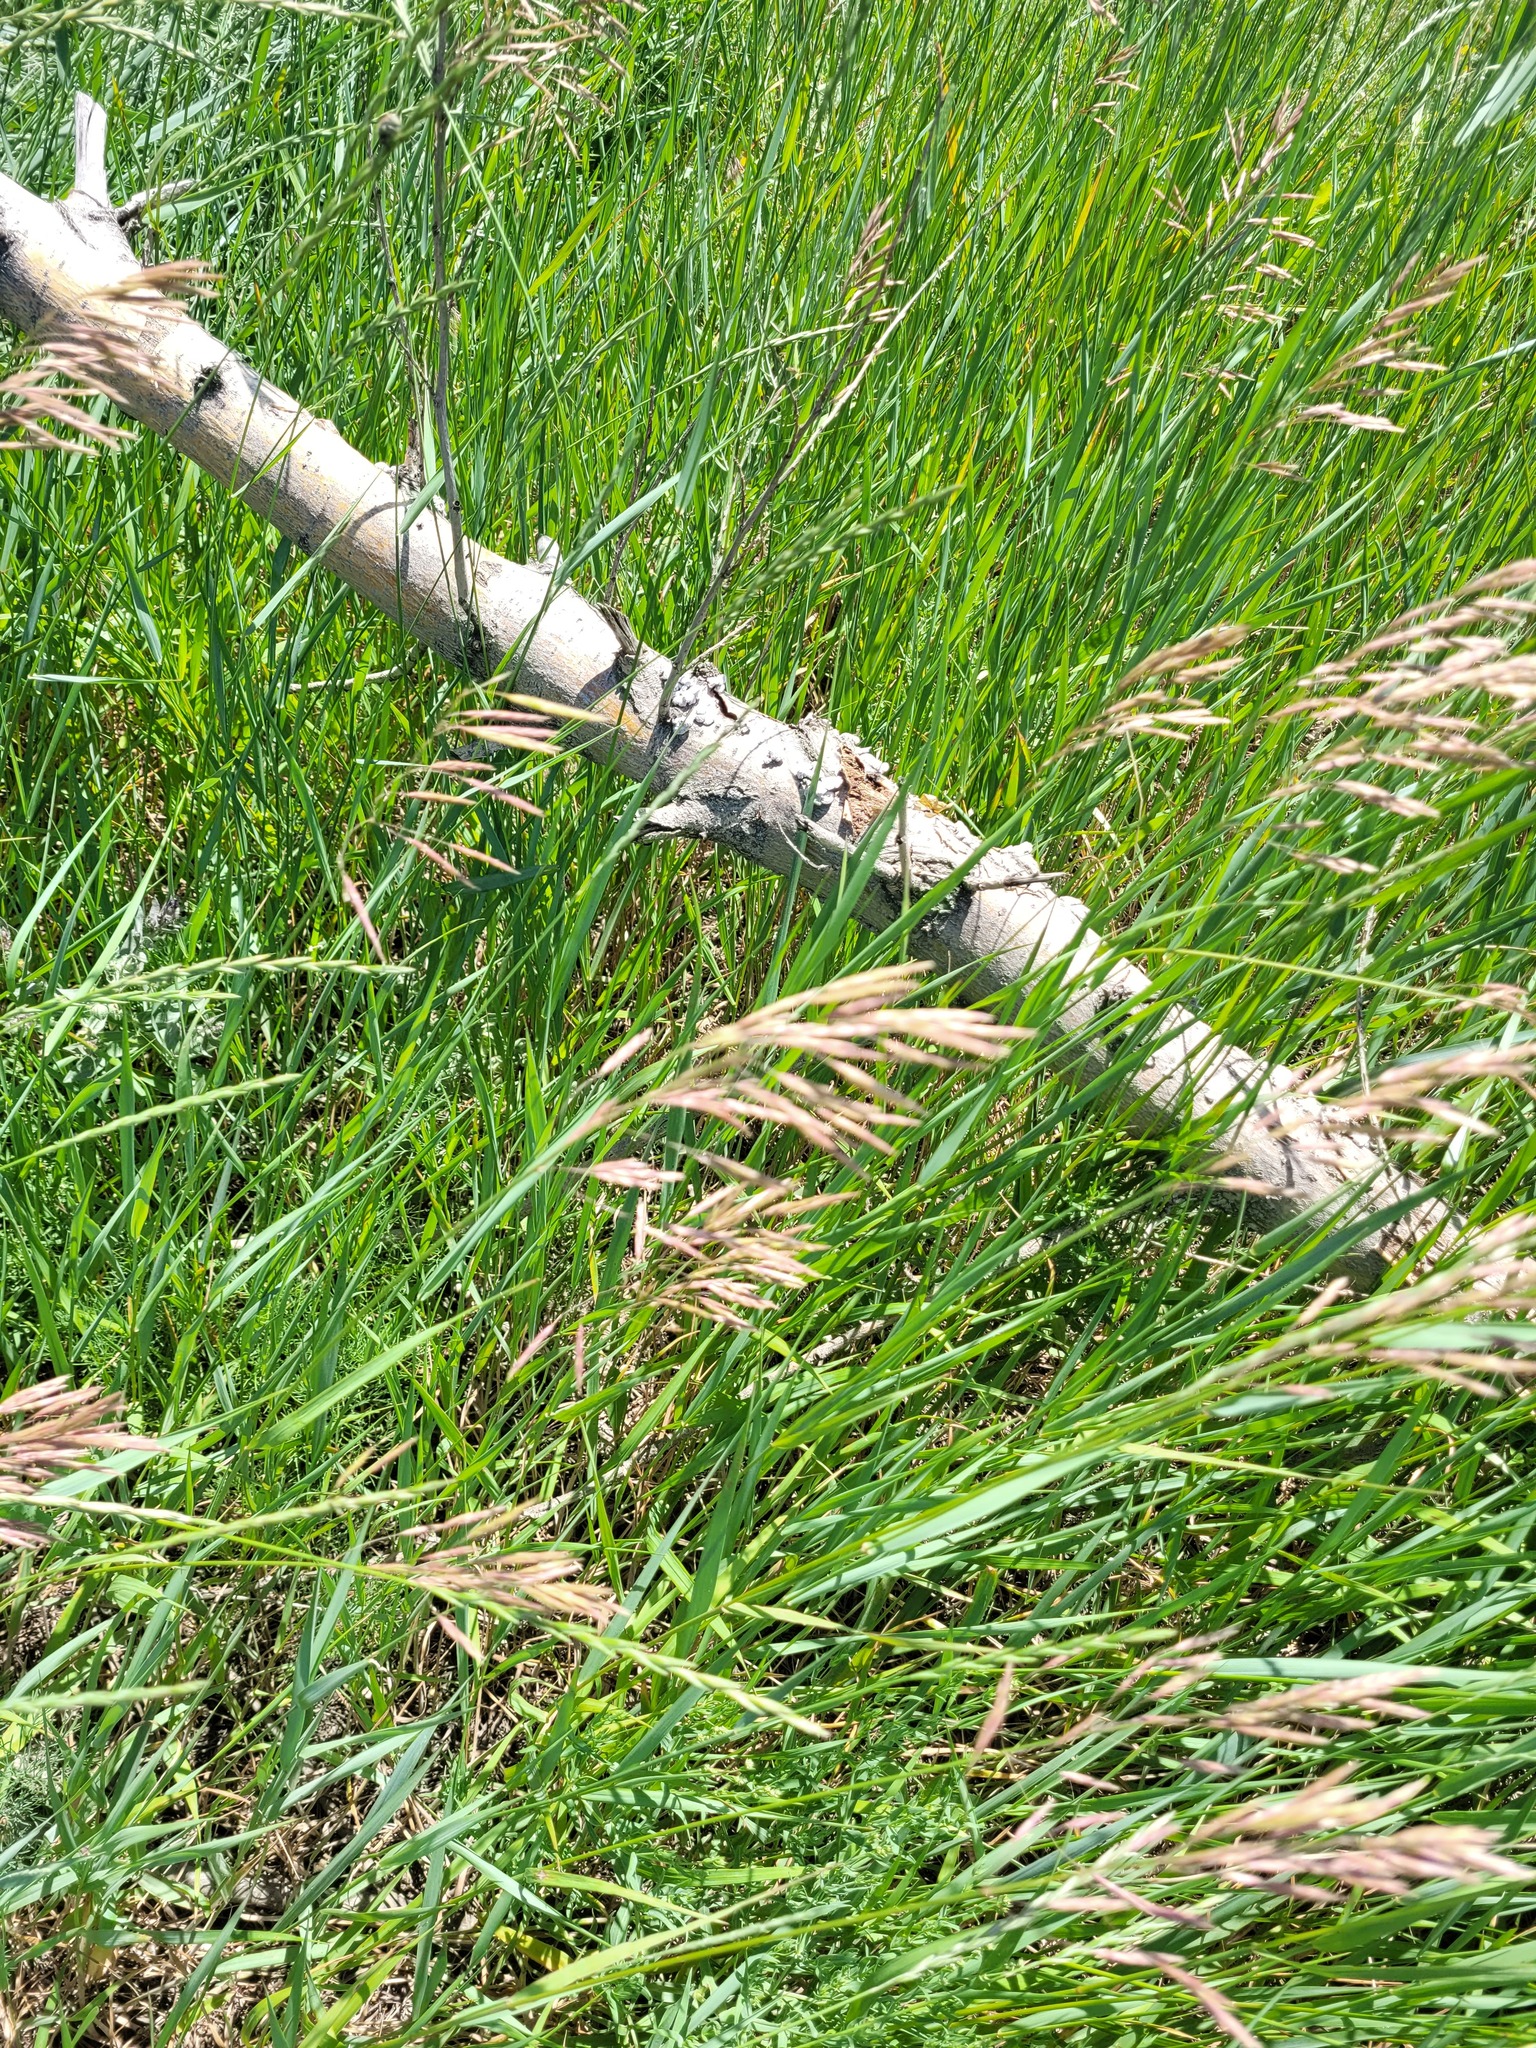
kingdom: Plantae
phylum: Tracheophyta
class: Liliopsida
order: Poales
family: Poaceae
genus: Bromus
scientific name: Bromus inermis
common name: Smooth brome
